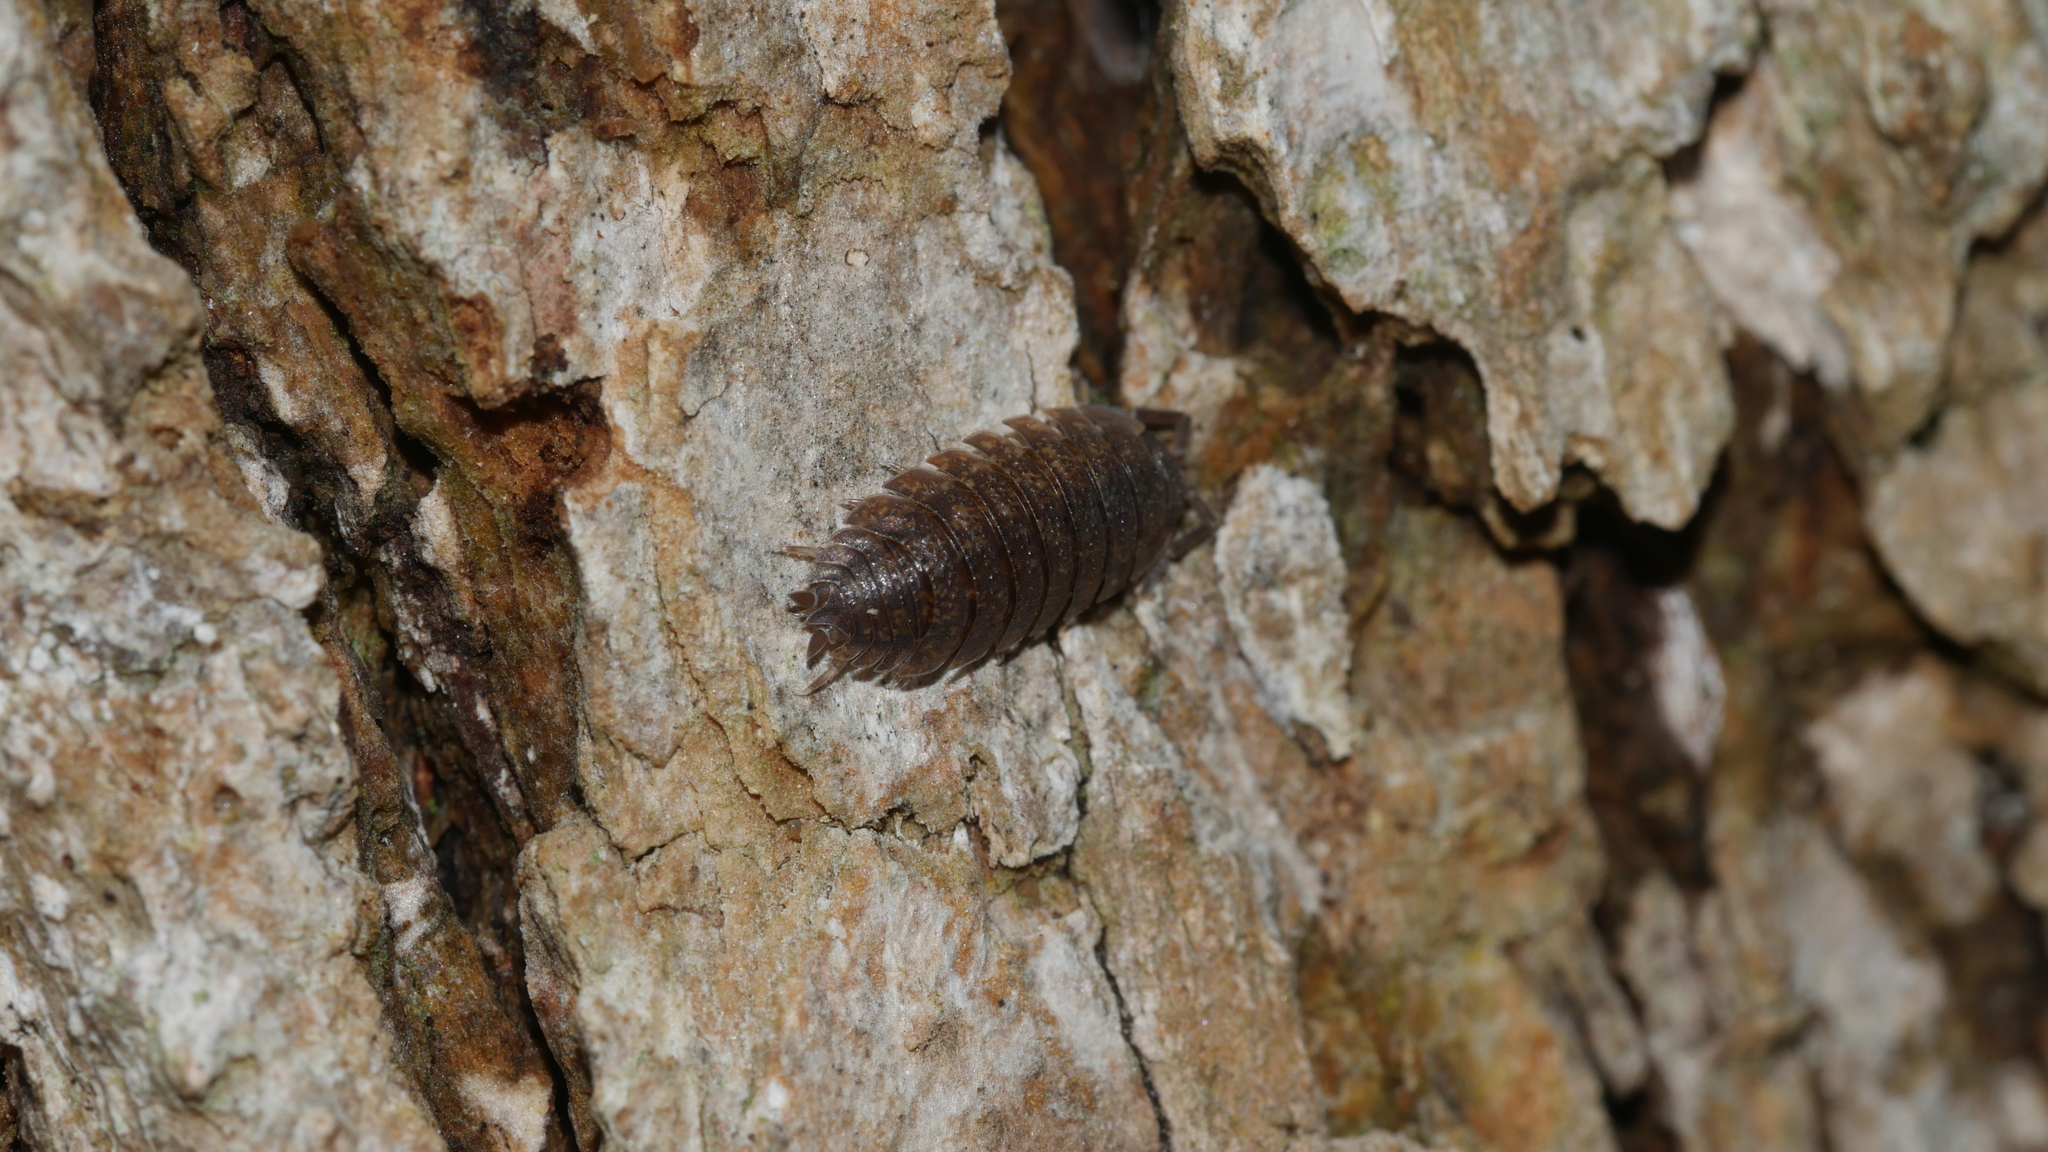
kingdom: Animalia
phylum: Arthropoda
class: Malacostraca
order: Isopoda
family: Porcellionidae
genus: Porcellio
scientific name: Porcellio scaber
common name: Common rough woodlouse
